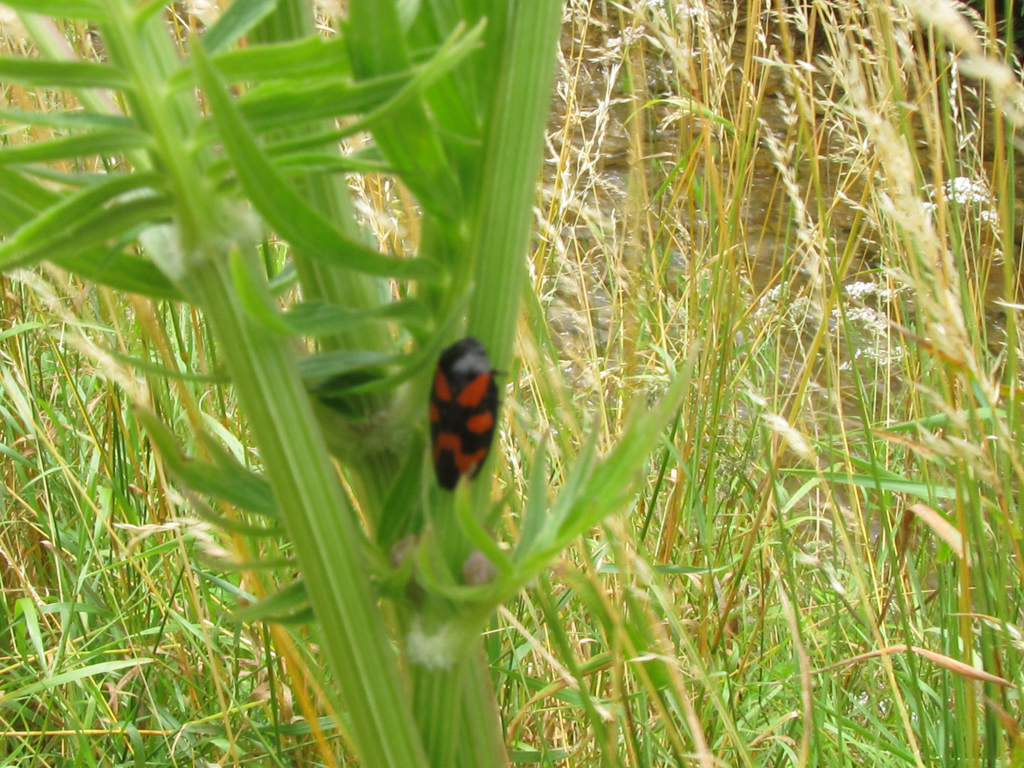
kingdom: Animalia
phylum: Arthropoda
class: Insecta
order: Hemiptera
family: Cercopidae
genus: Cercopis
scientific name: Cercopis vulnerata
